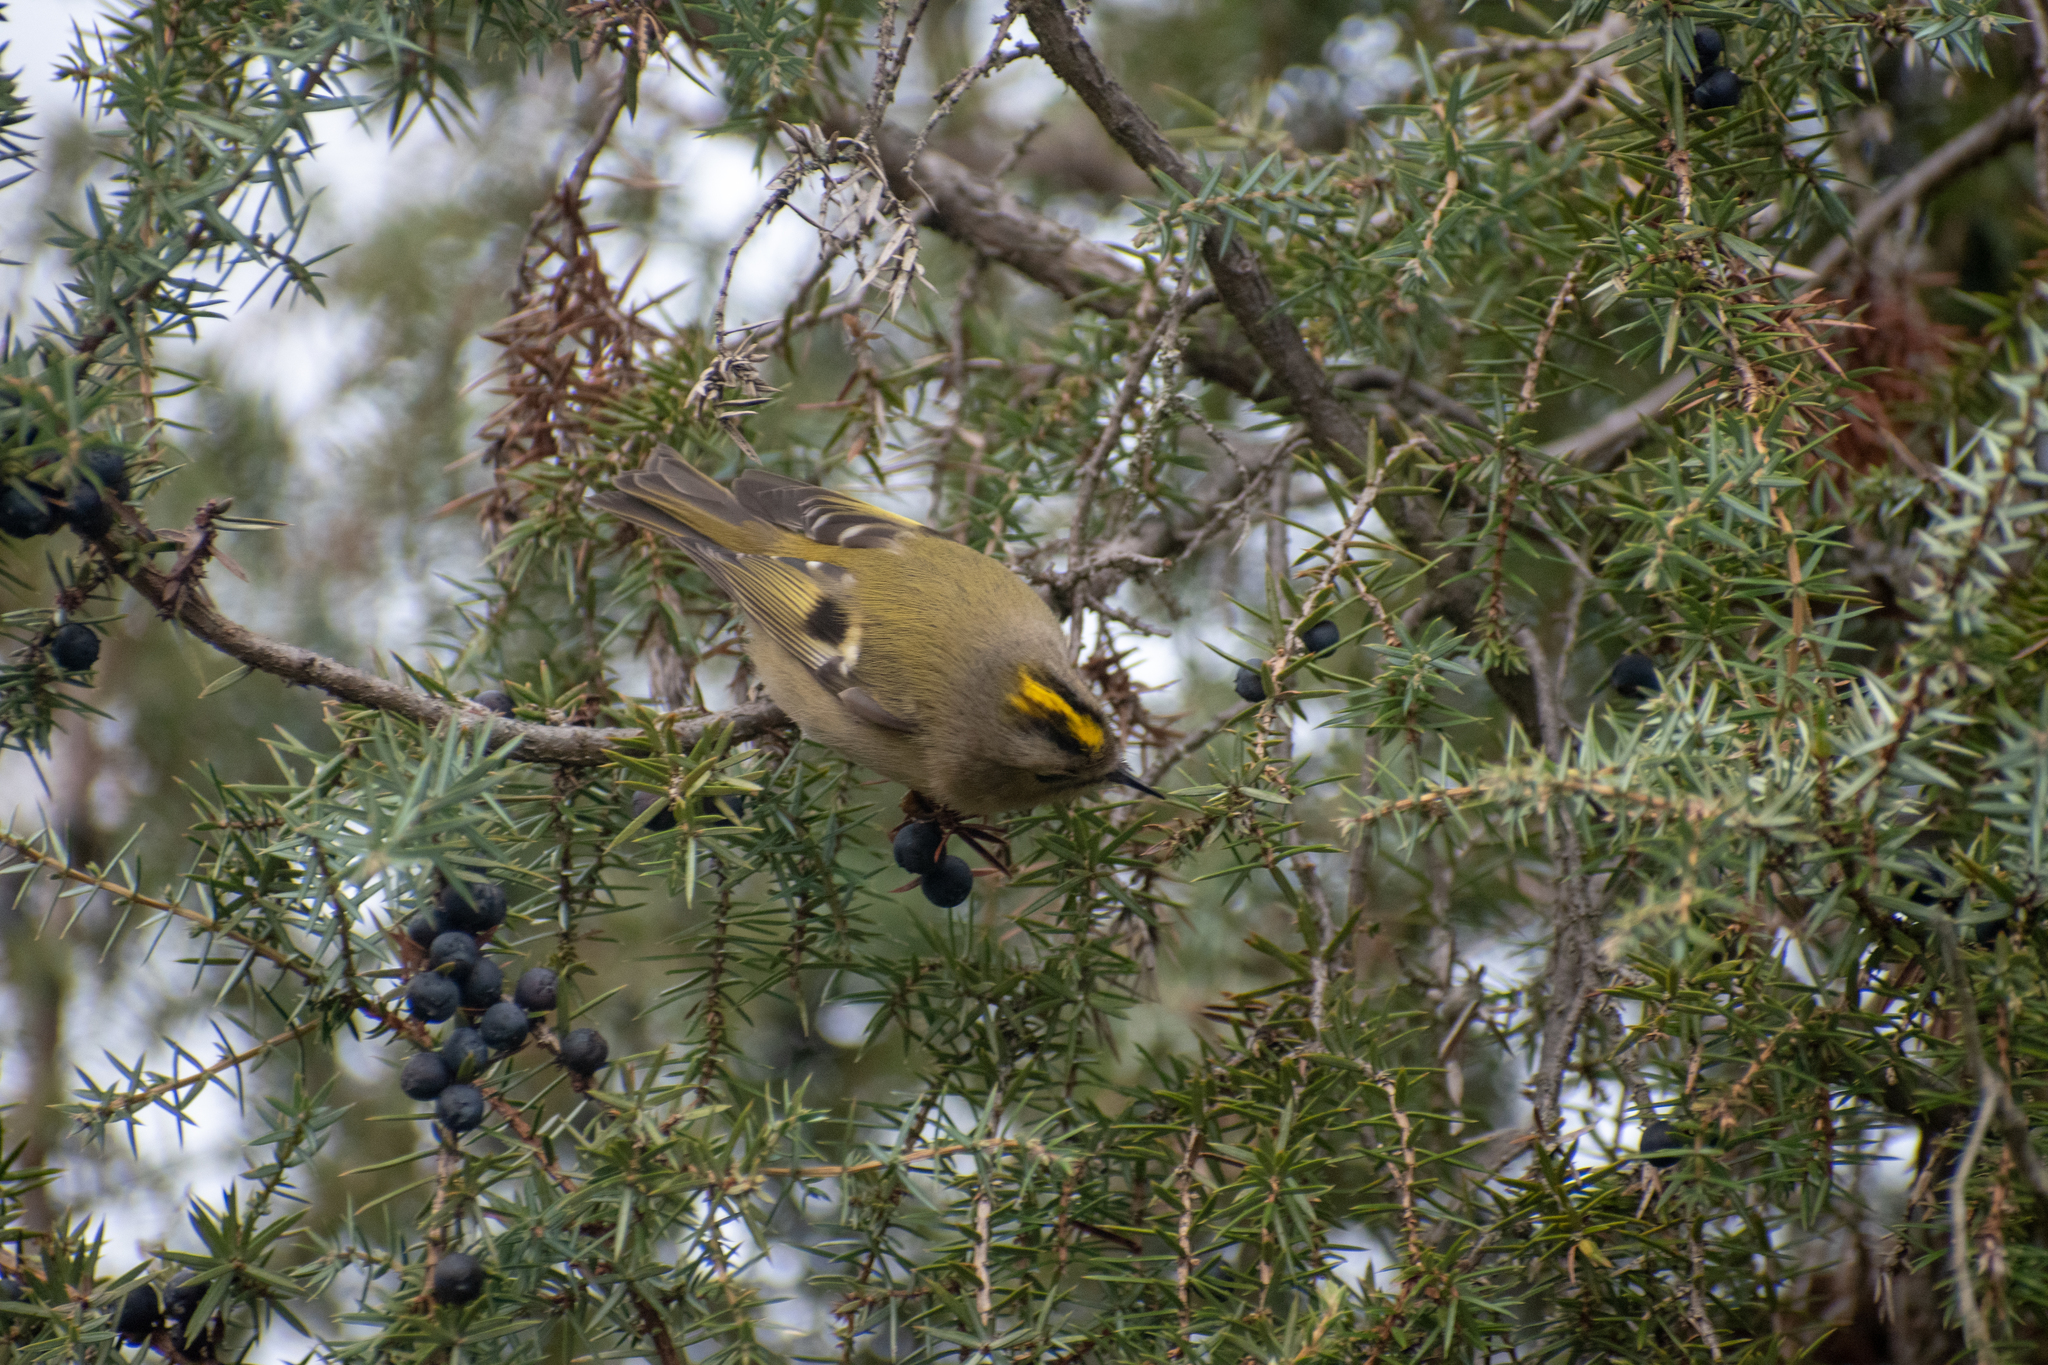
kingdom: Animalia
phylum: Chordata
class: Aves
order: Passeriformes
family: Regulidae
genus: Regulus
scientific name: Regulus regulus
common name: Goldcrest
